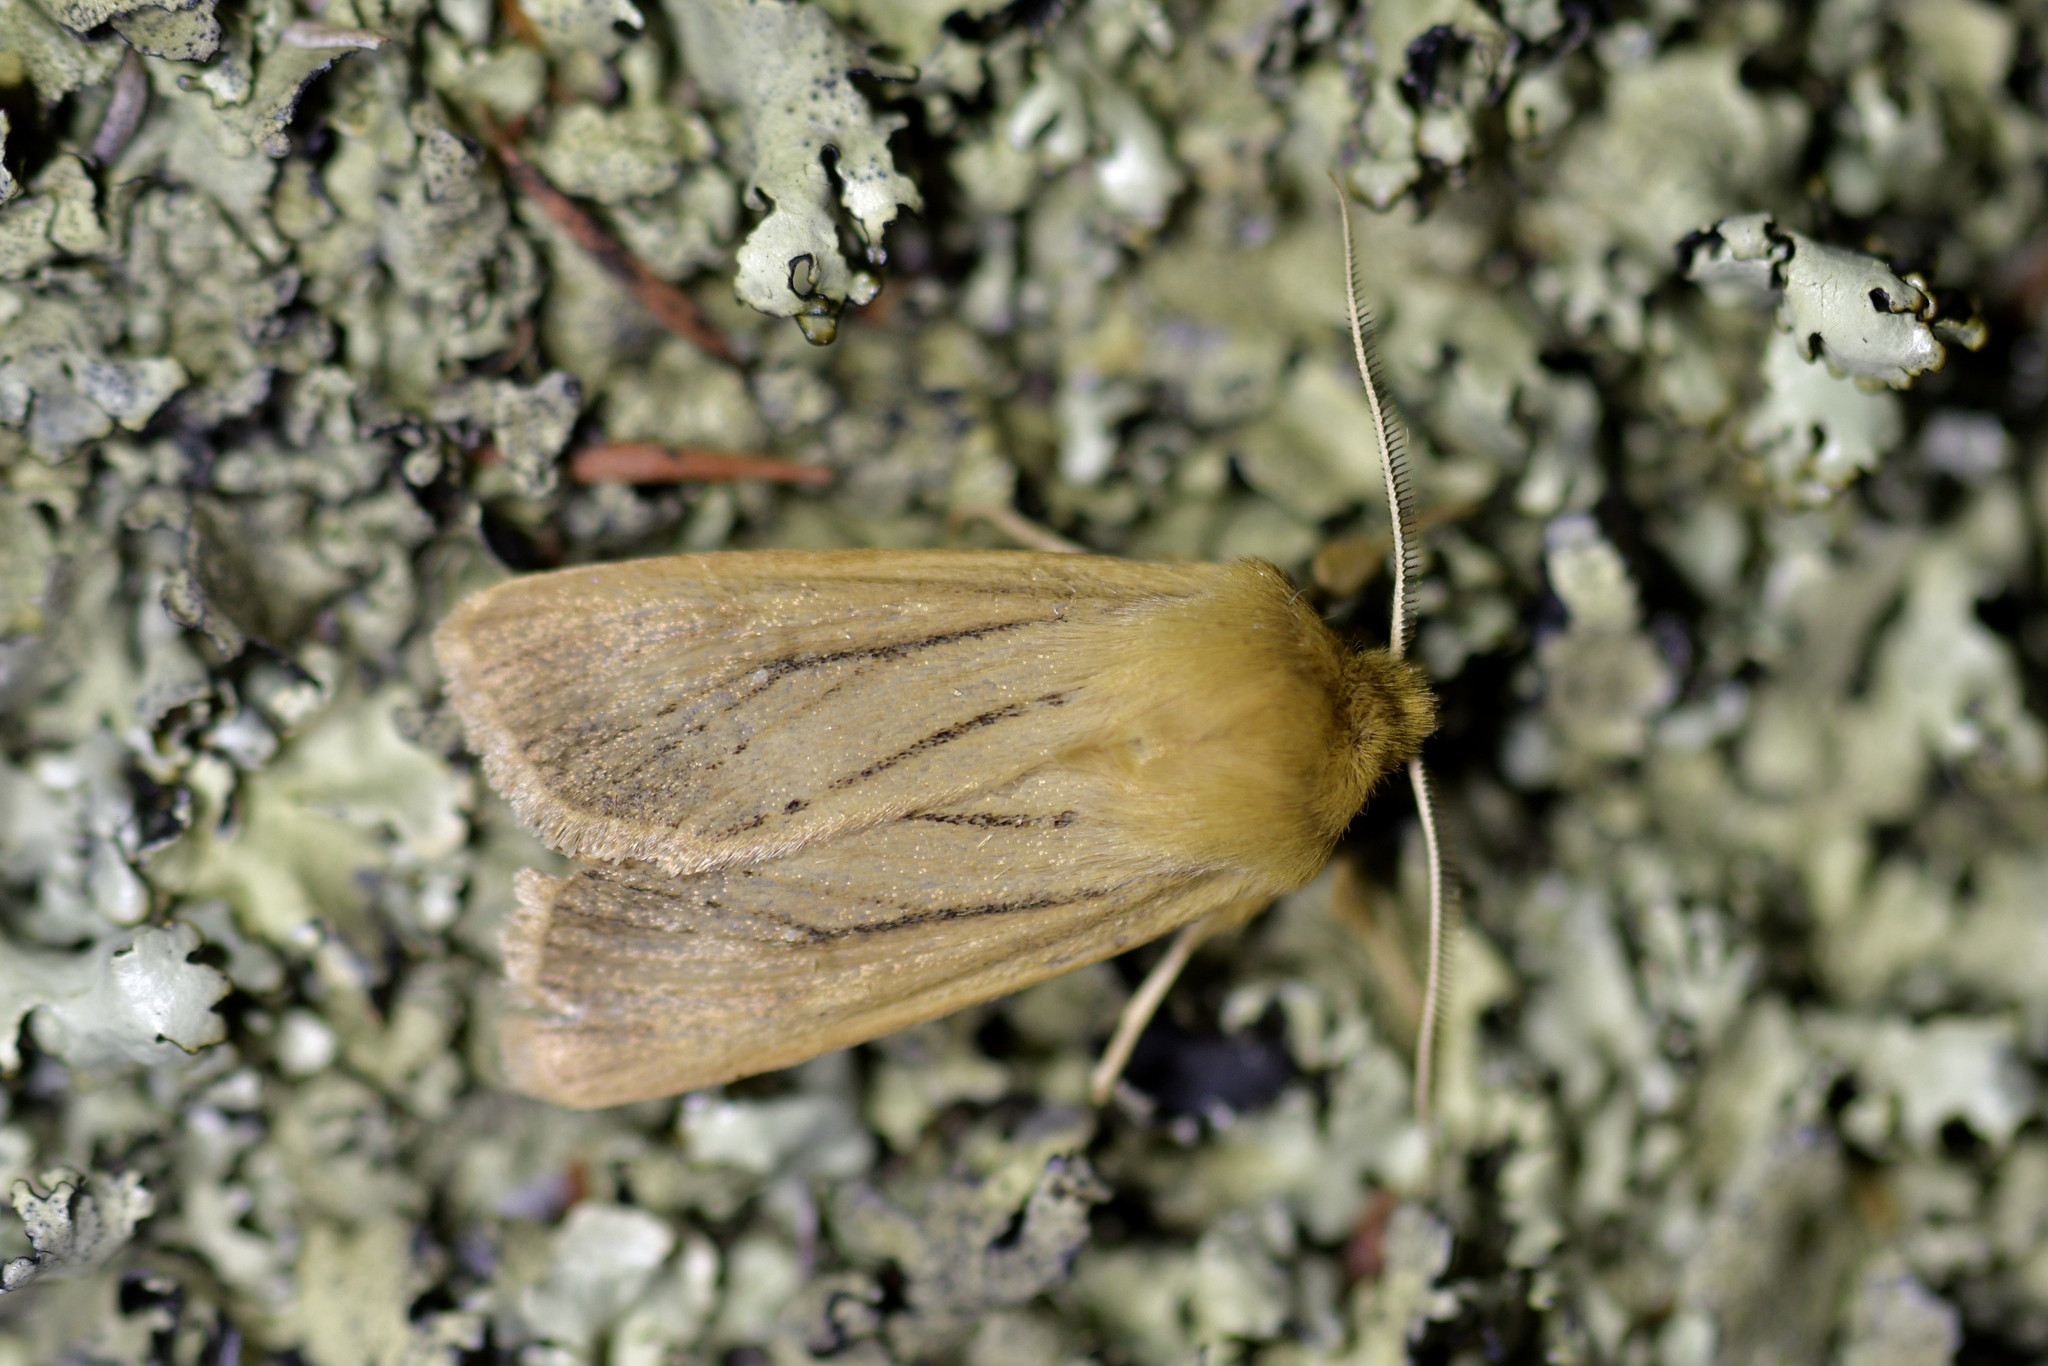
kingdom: Animalia
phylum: Arthropoda
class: Insecta
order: Lepidoptera
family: Noctuidae
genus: Ichneutica
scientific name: Ichneutica
